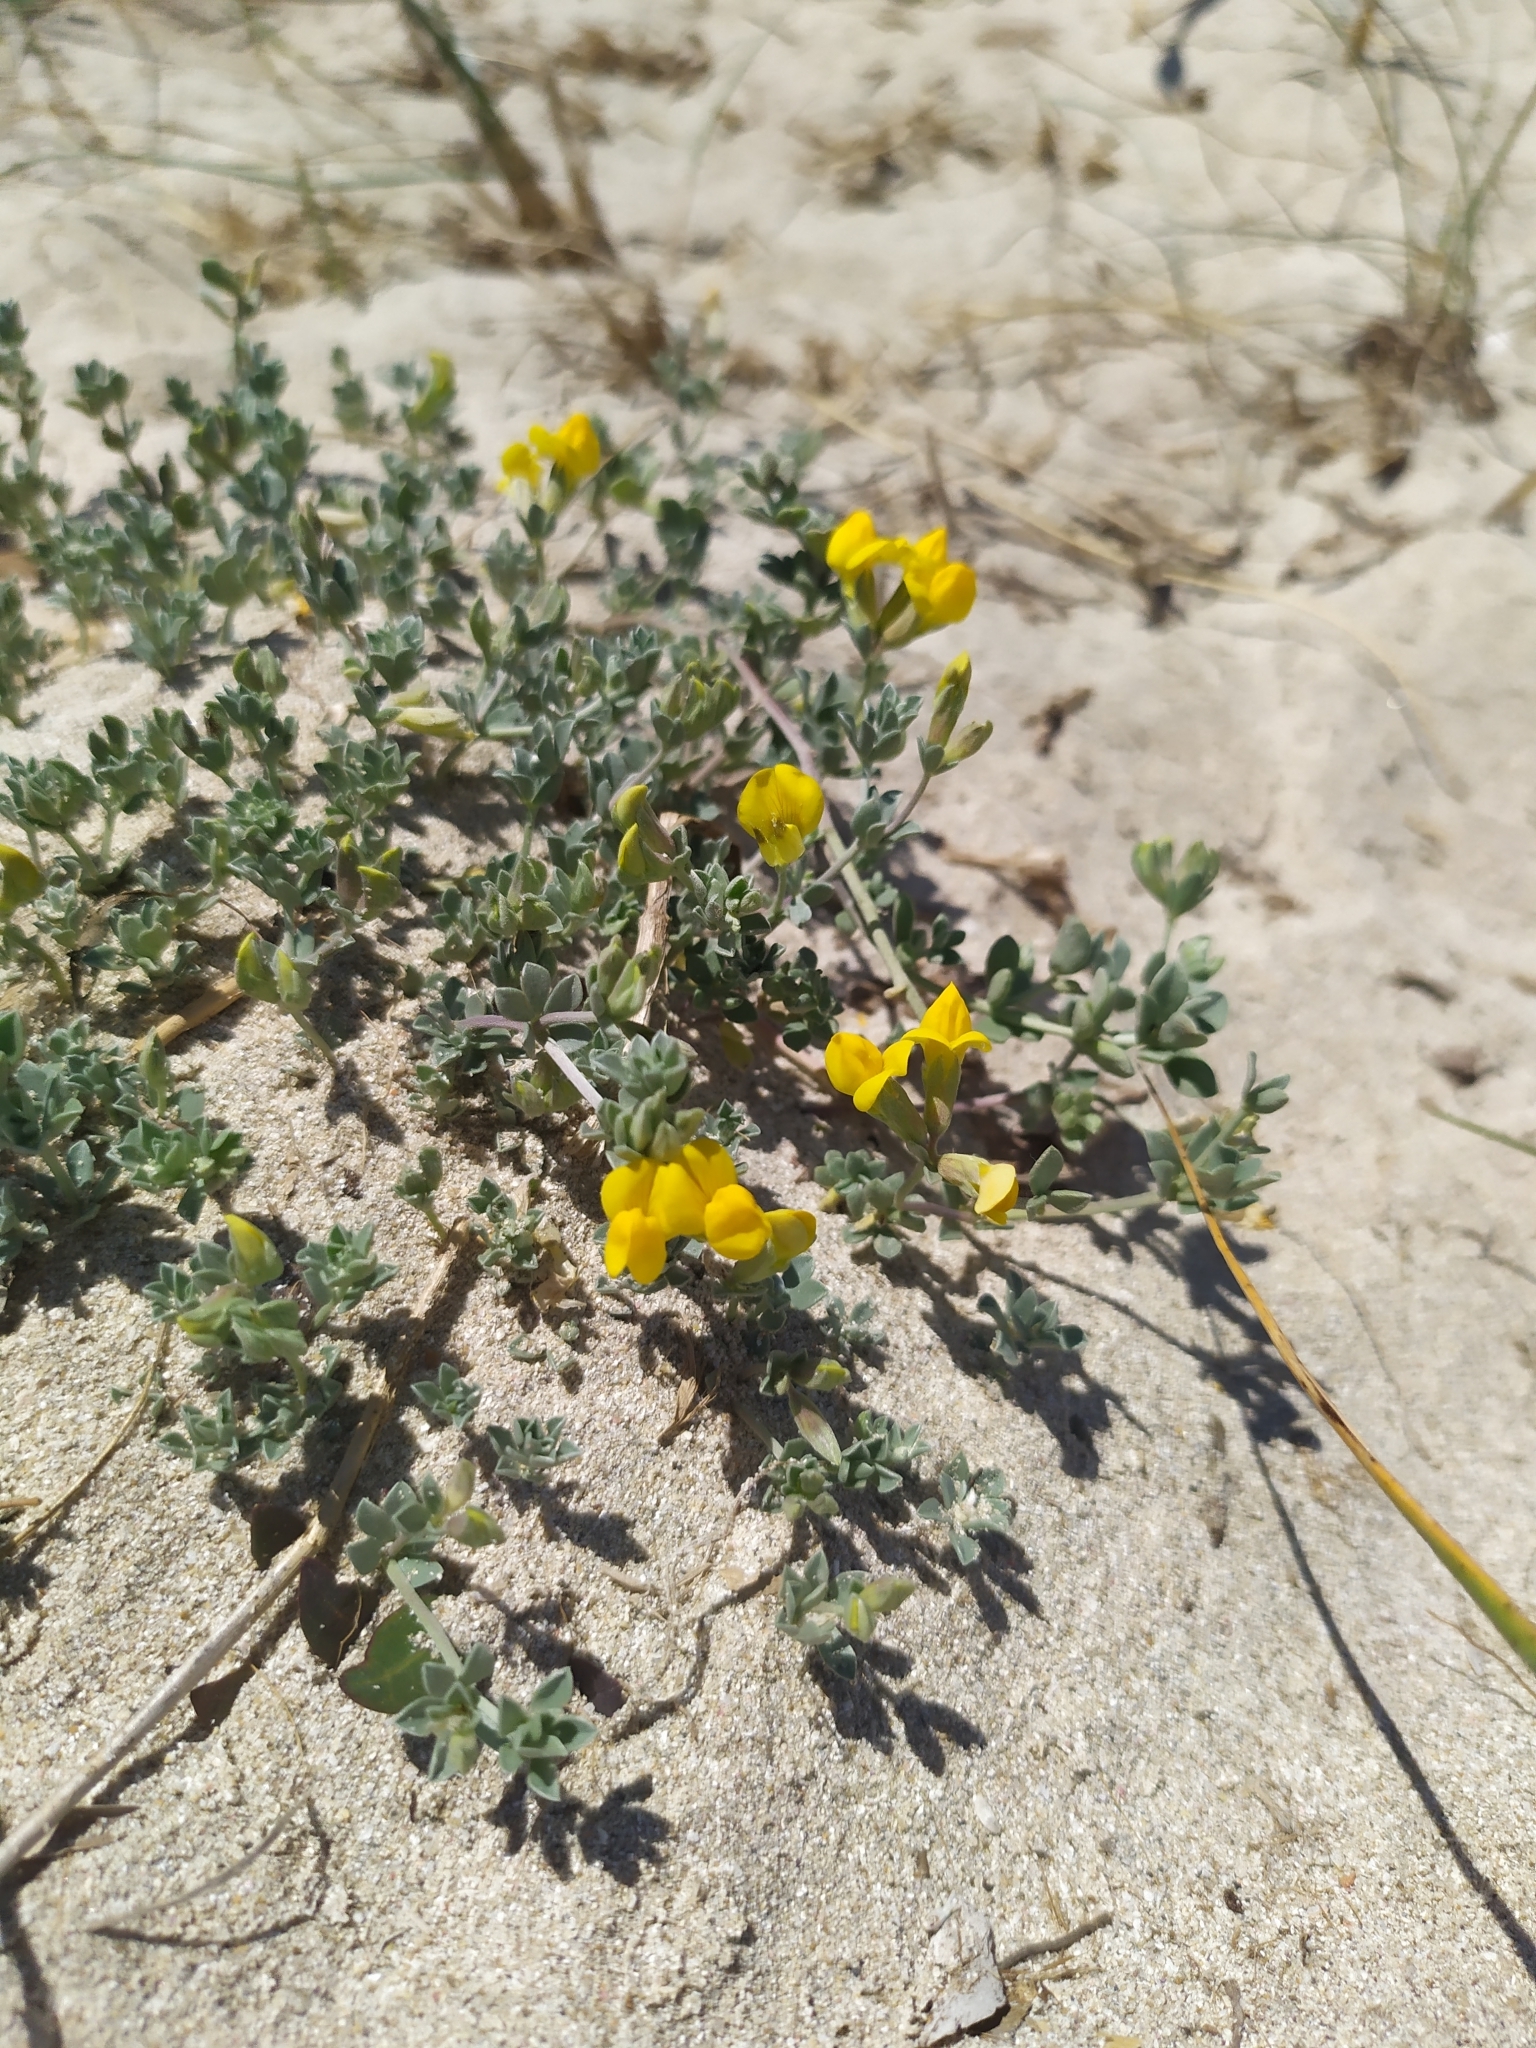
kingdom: Plantae
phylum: Tracheophyta
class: Magnoliopsida
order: Fabales
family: Fabaceae
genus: Lotus
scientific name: Lotus cytisoides
